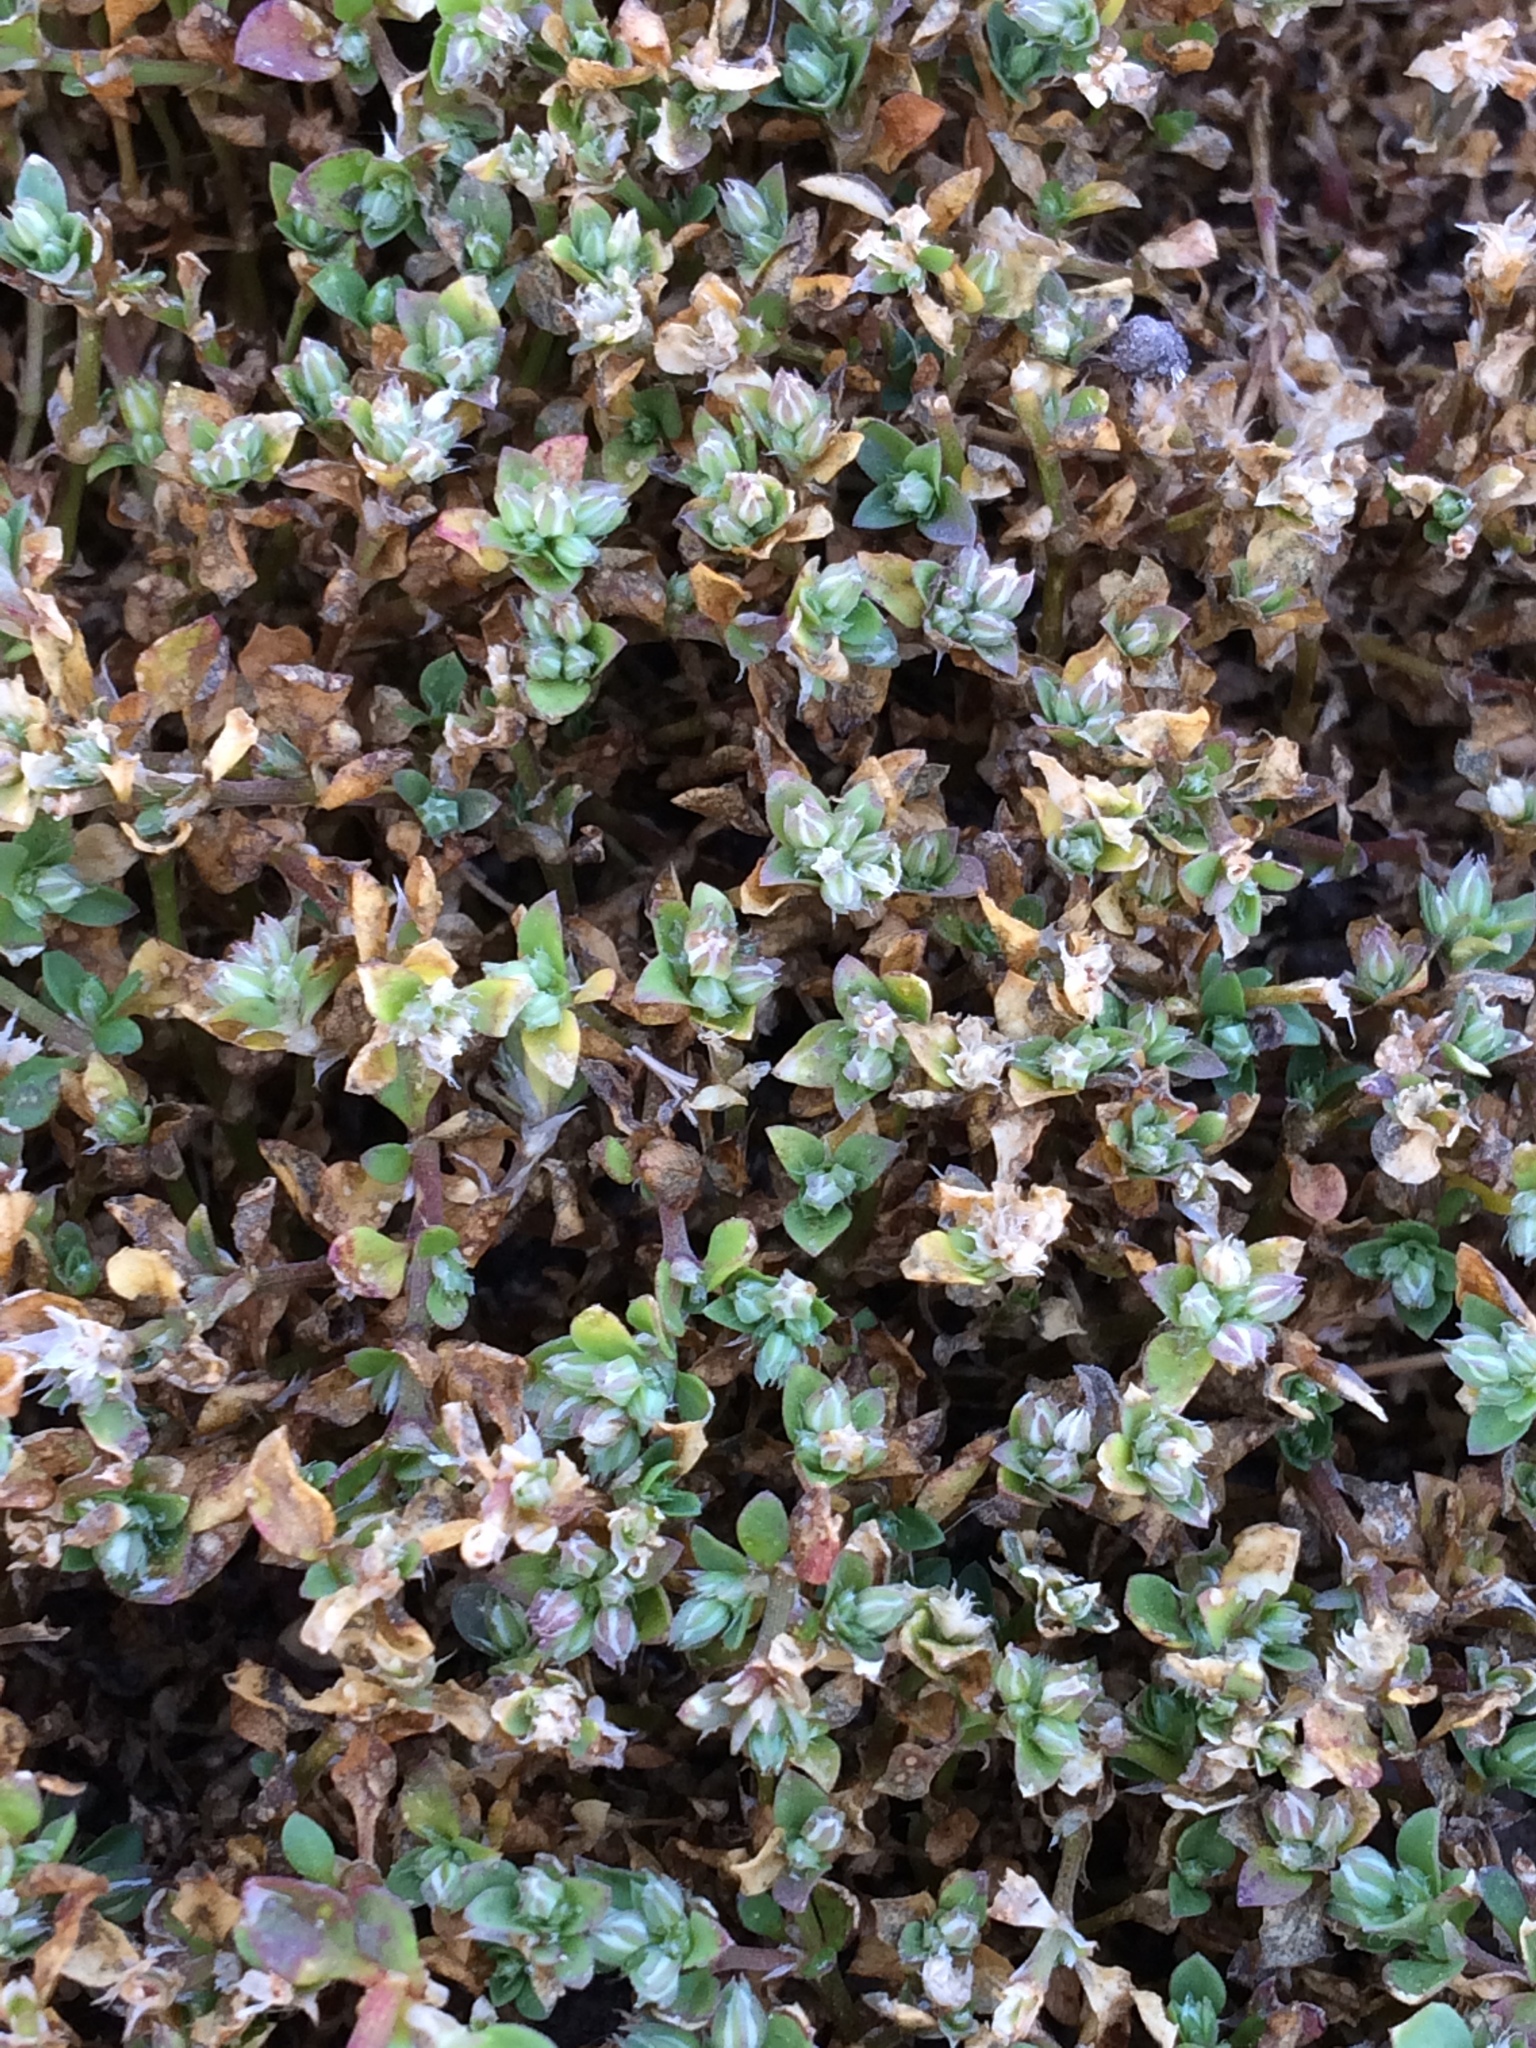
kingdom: Plantae
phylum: Tracheophyta
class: Magnoliopsida
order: Caryophyllales
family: Caryophyllaceae
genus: Polycarpon
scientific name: Polycarpon tetraphyllum
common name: Four-leaved all-seed
